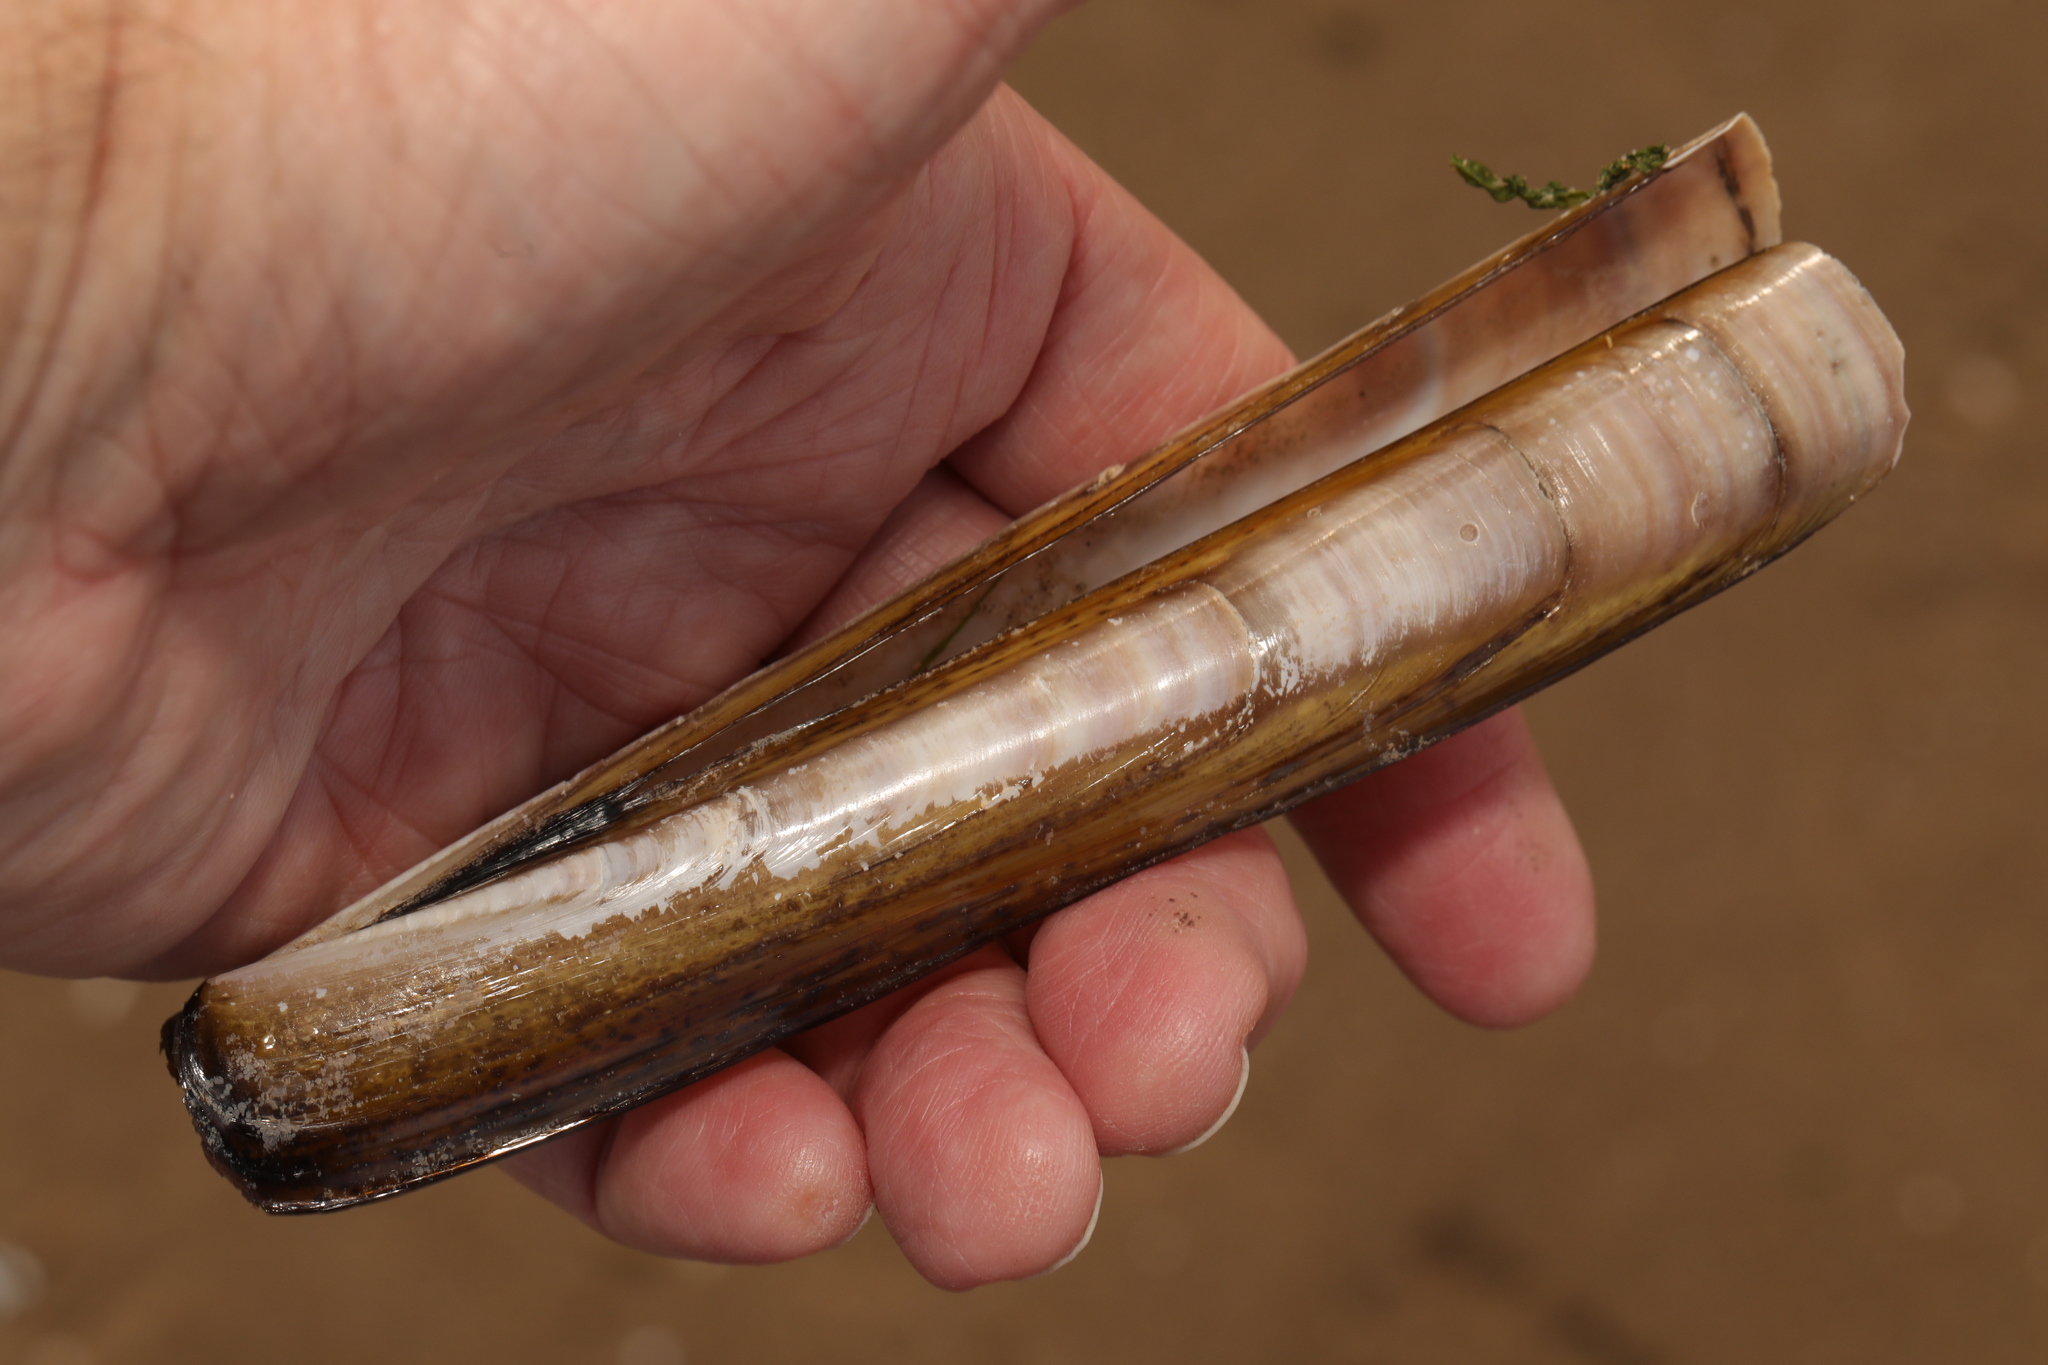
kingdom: Animalia
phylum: Mollusca
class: Bivalvia
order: Adapedonta
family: Pharidae
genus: Ensis
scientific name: Ensis leei
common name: American jack knife clam
